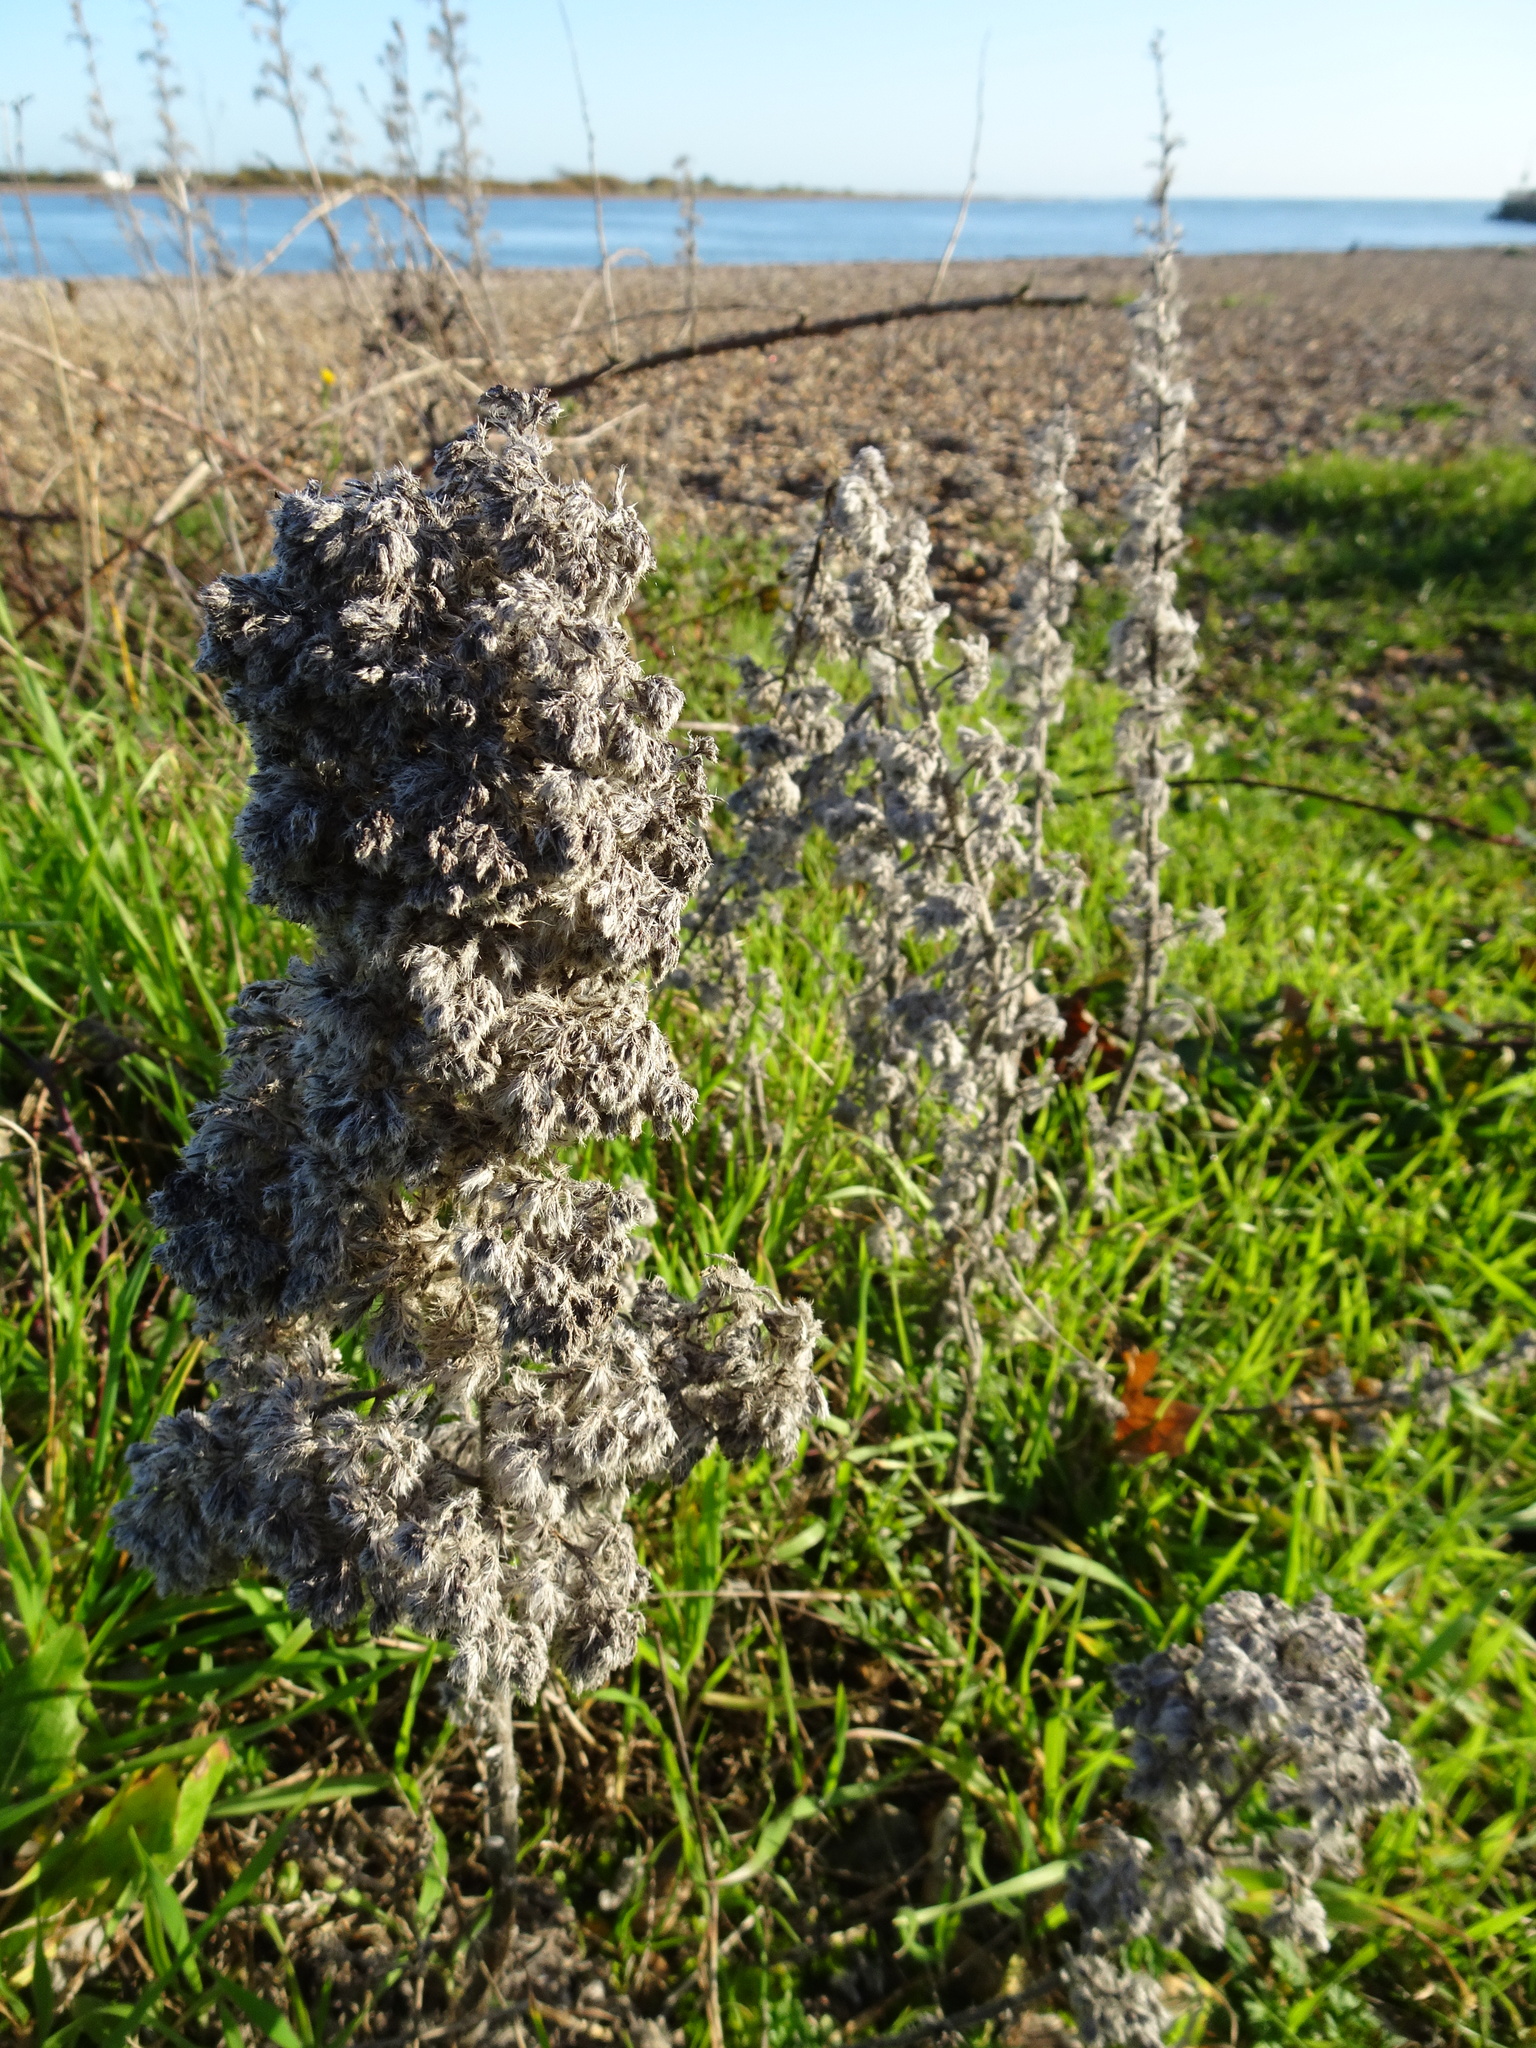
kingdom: Plantae
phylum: Tracheophyta
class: Magnoliopsida
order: Boraginales
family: Boraginaceae
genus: Echium
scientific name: Echium vulgare
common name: Common viper's bugloss
